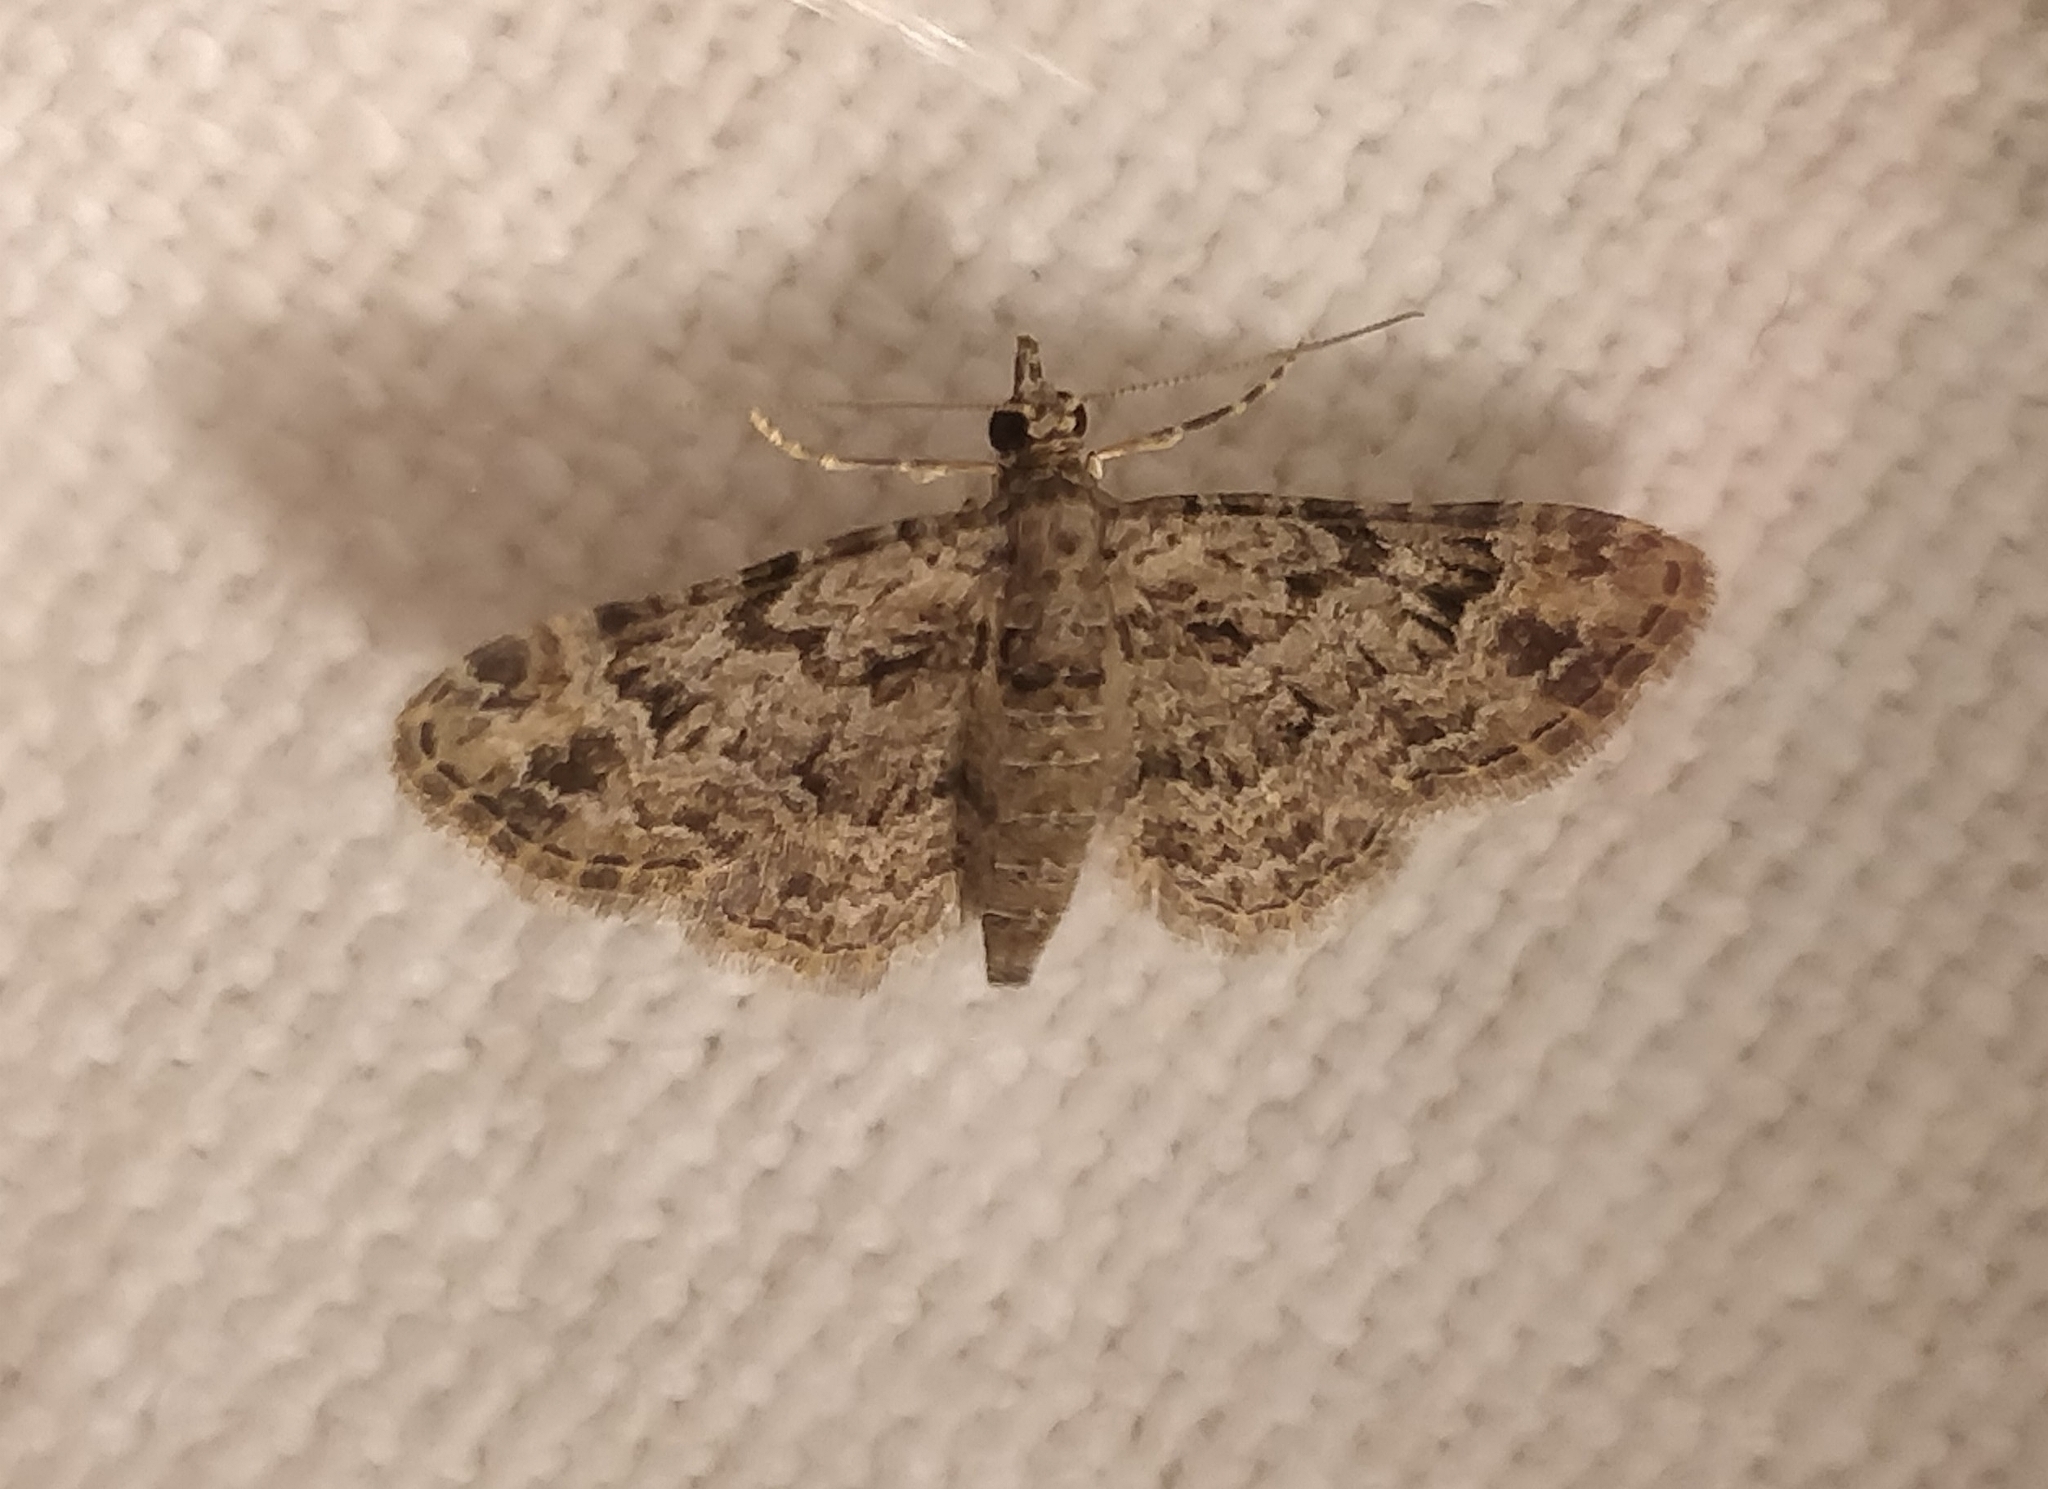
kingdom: Animalia
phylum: Arthropoda
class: Insecta
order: Lepidoptera
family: Geometridae
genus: Gymnoscelis
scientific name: Gymnoscelis rufifasciata
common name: Double-striped pug
